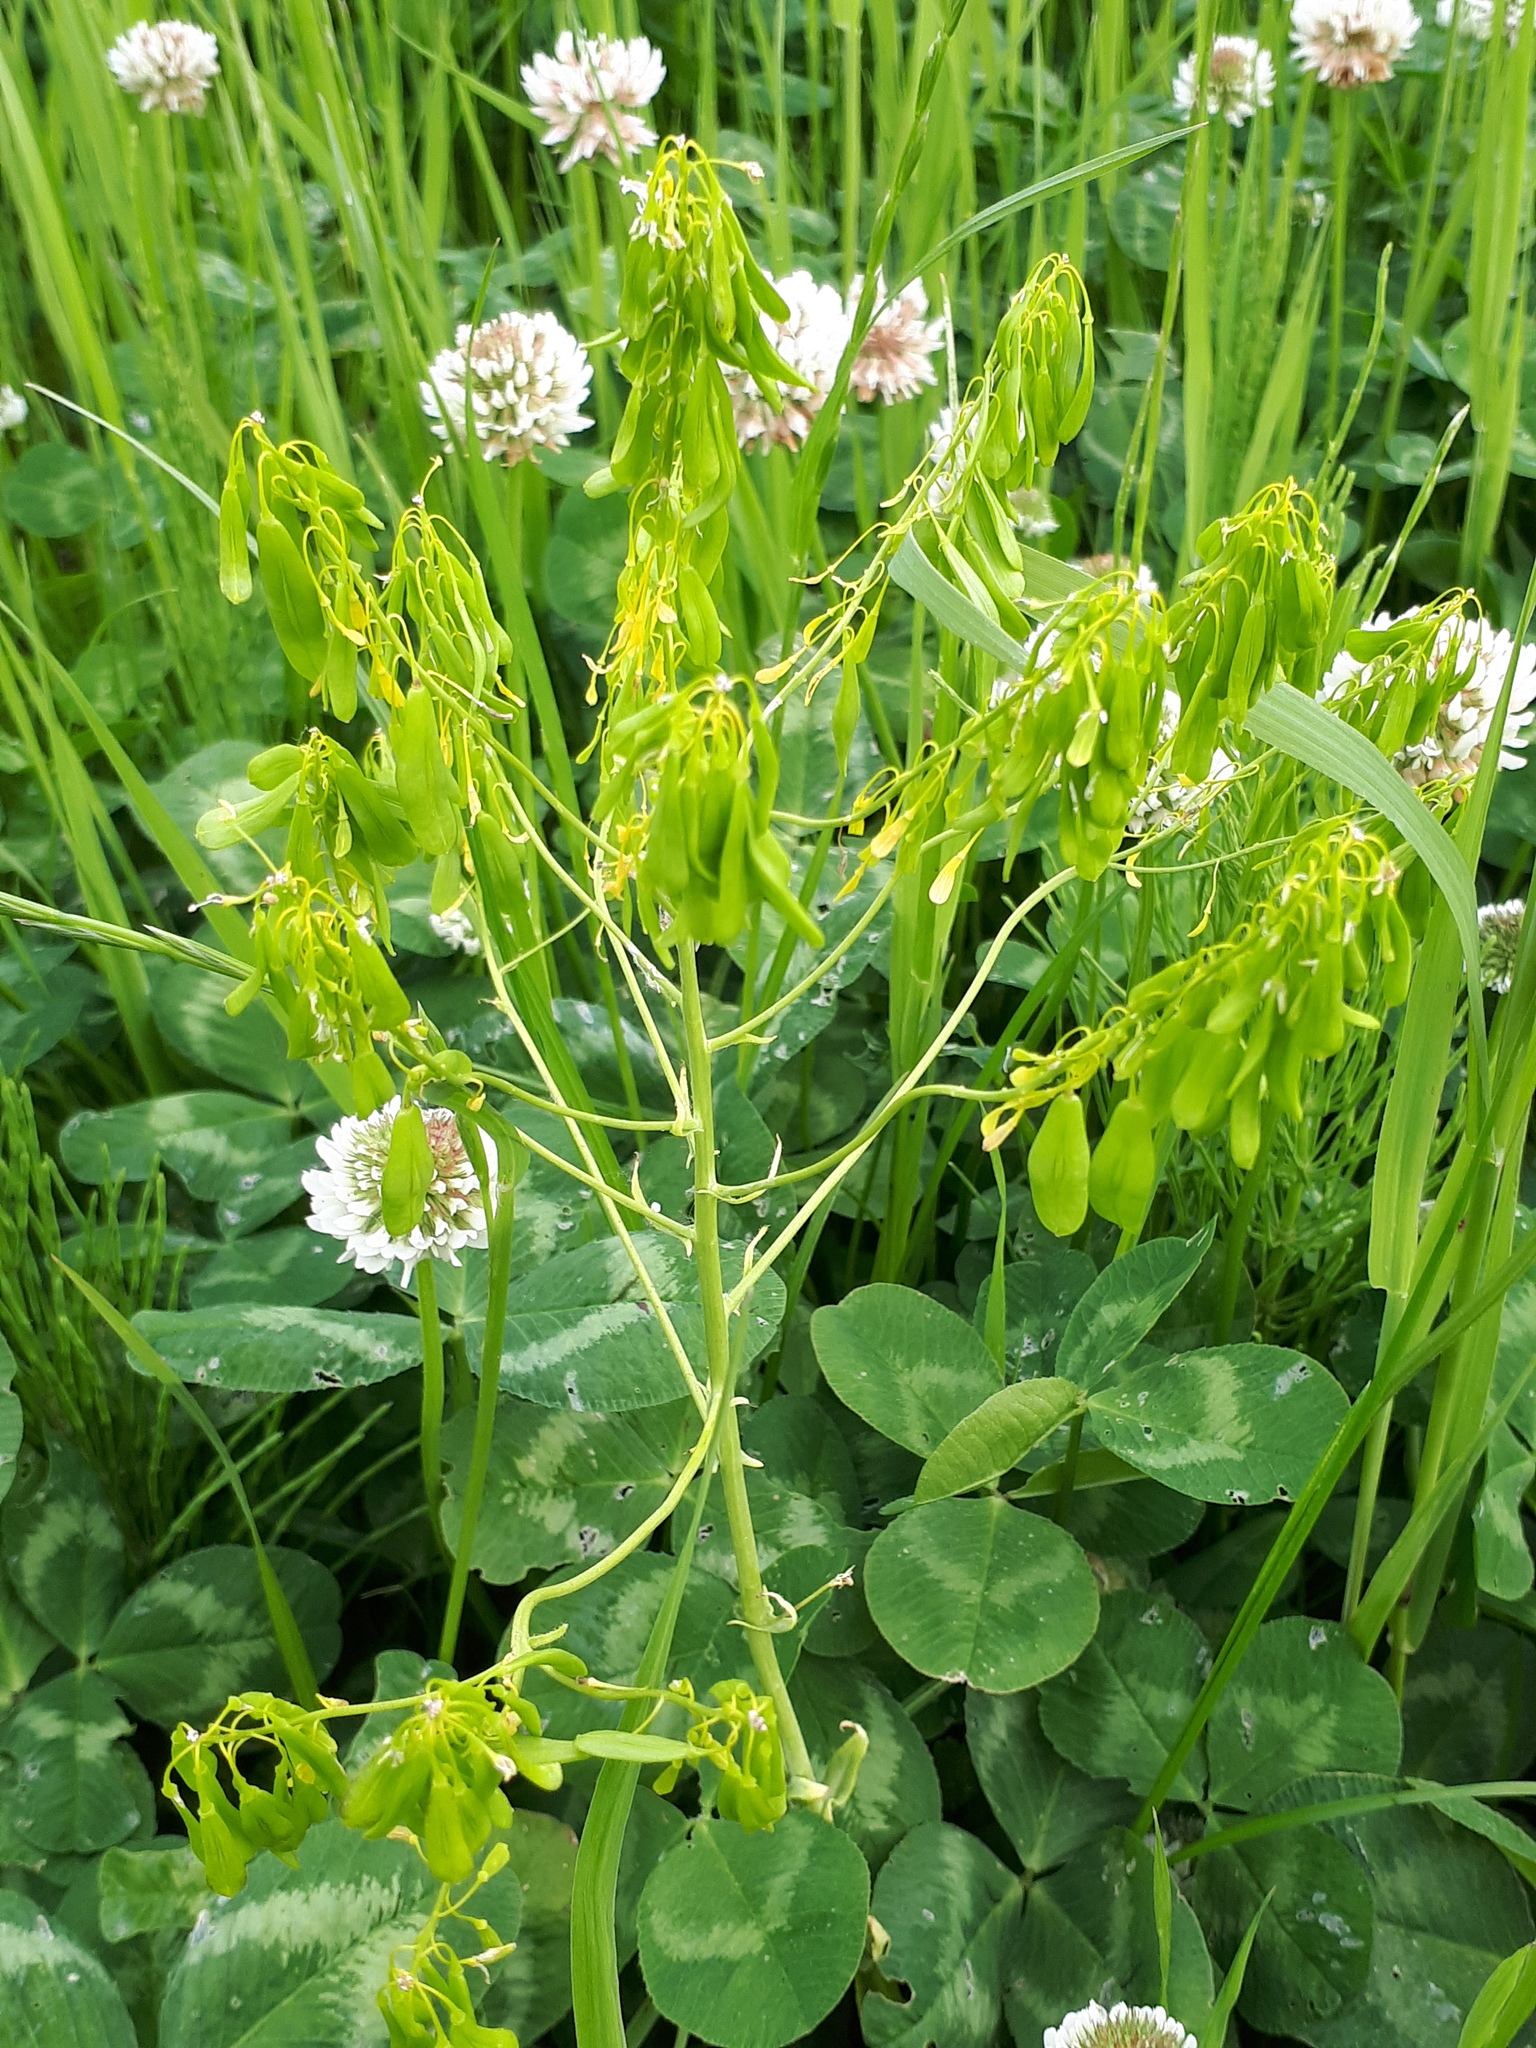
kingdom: Plantae
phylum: Tracheophyta
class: Magnoliopsida
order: Brassicales
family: Brassicaceae
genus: Isatis
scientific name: Isatis tinctoria
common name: Woad
